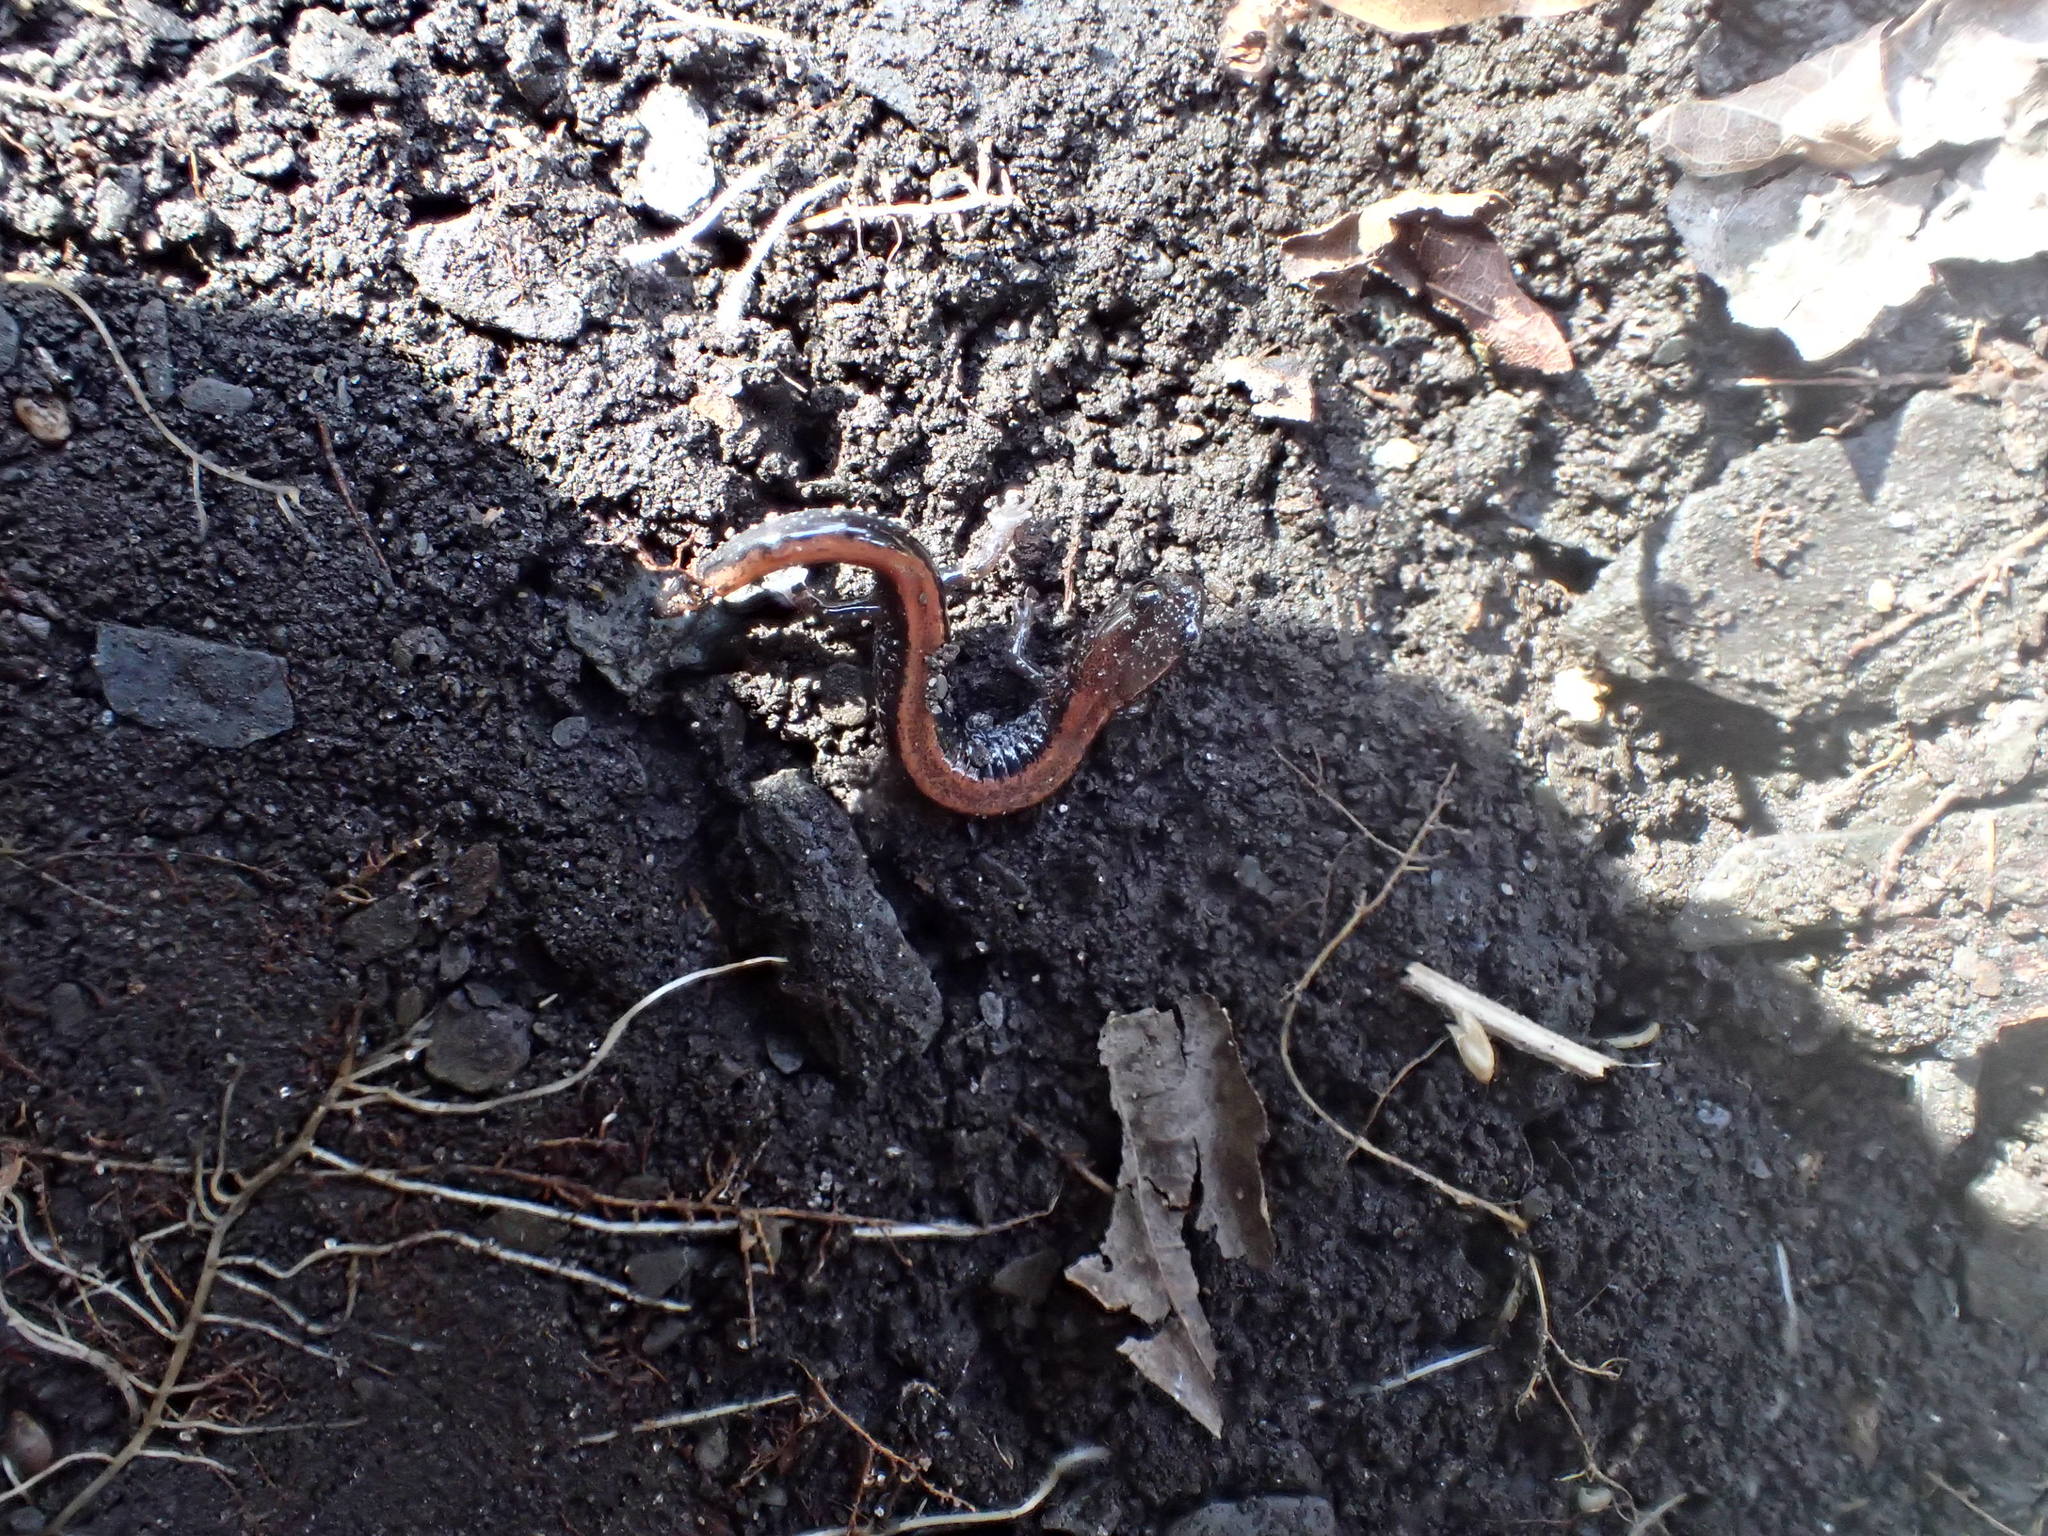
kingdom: Animalia
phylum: Chordata
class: Amphibia
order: Caudata
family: Plethodontidae
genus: Plethodon
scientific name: Plethodon cinereus
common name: Redback salamander
